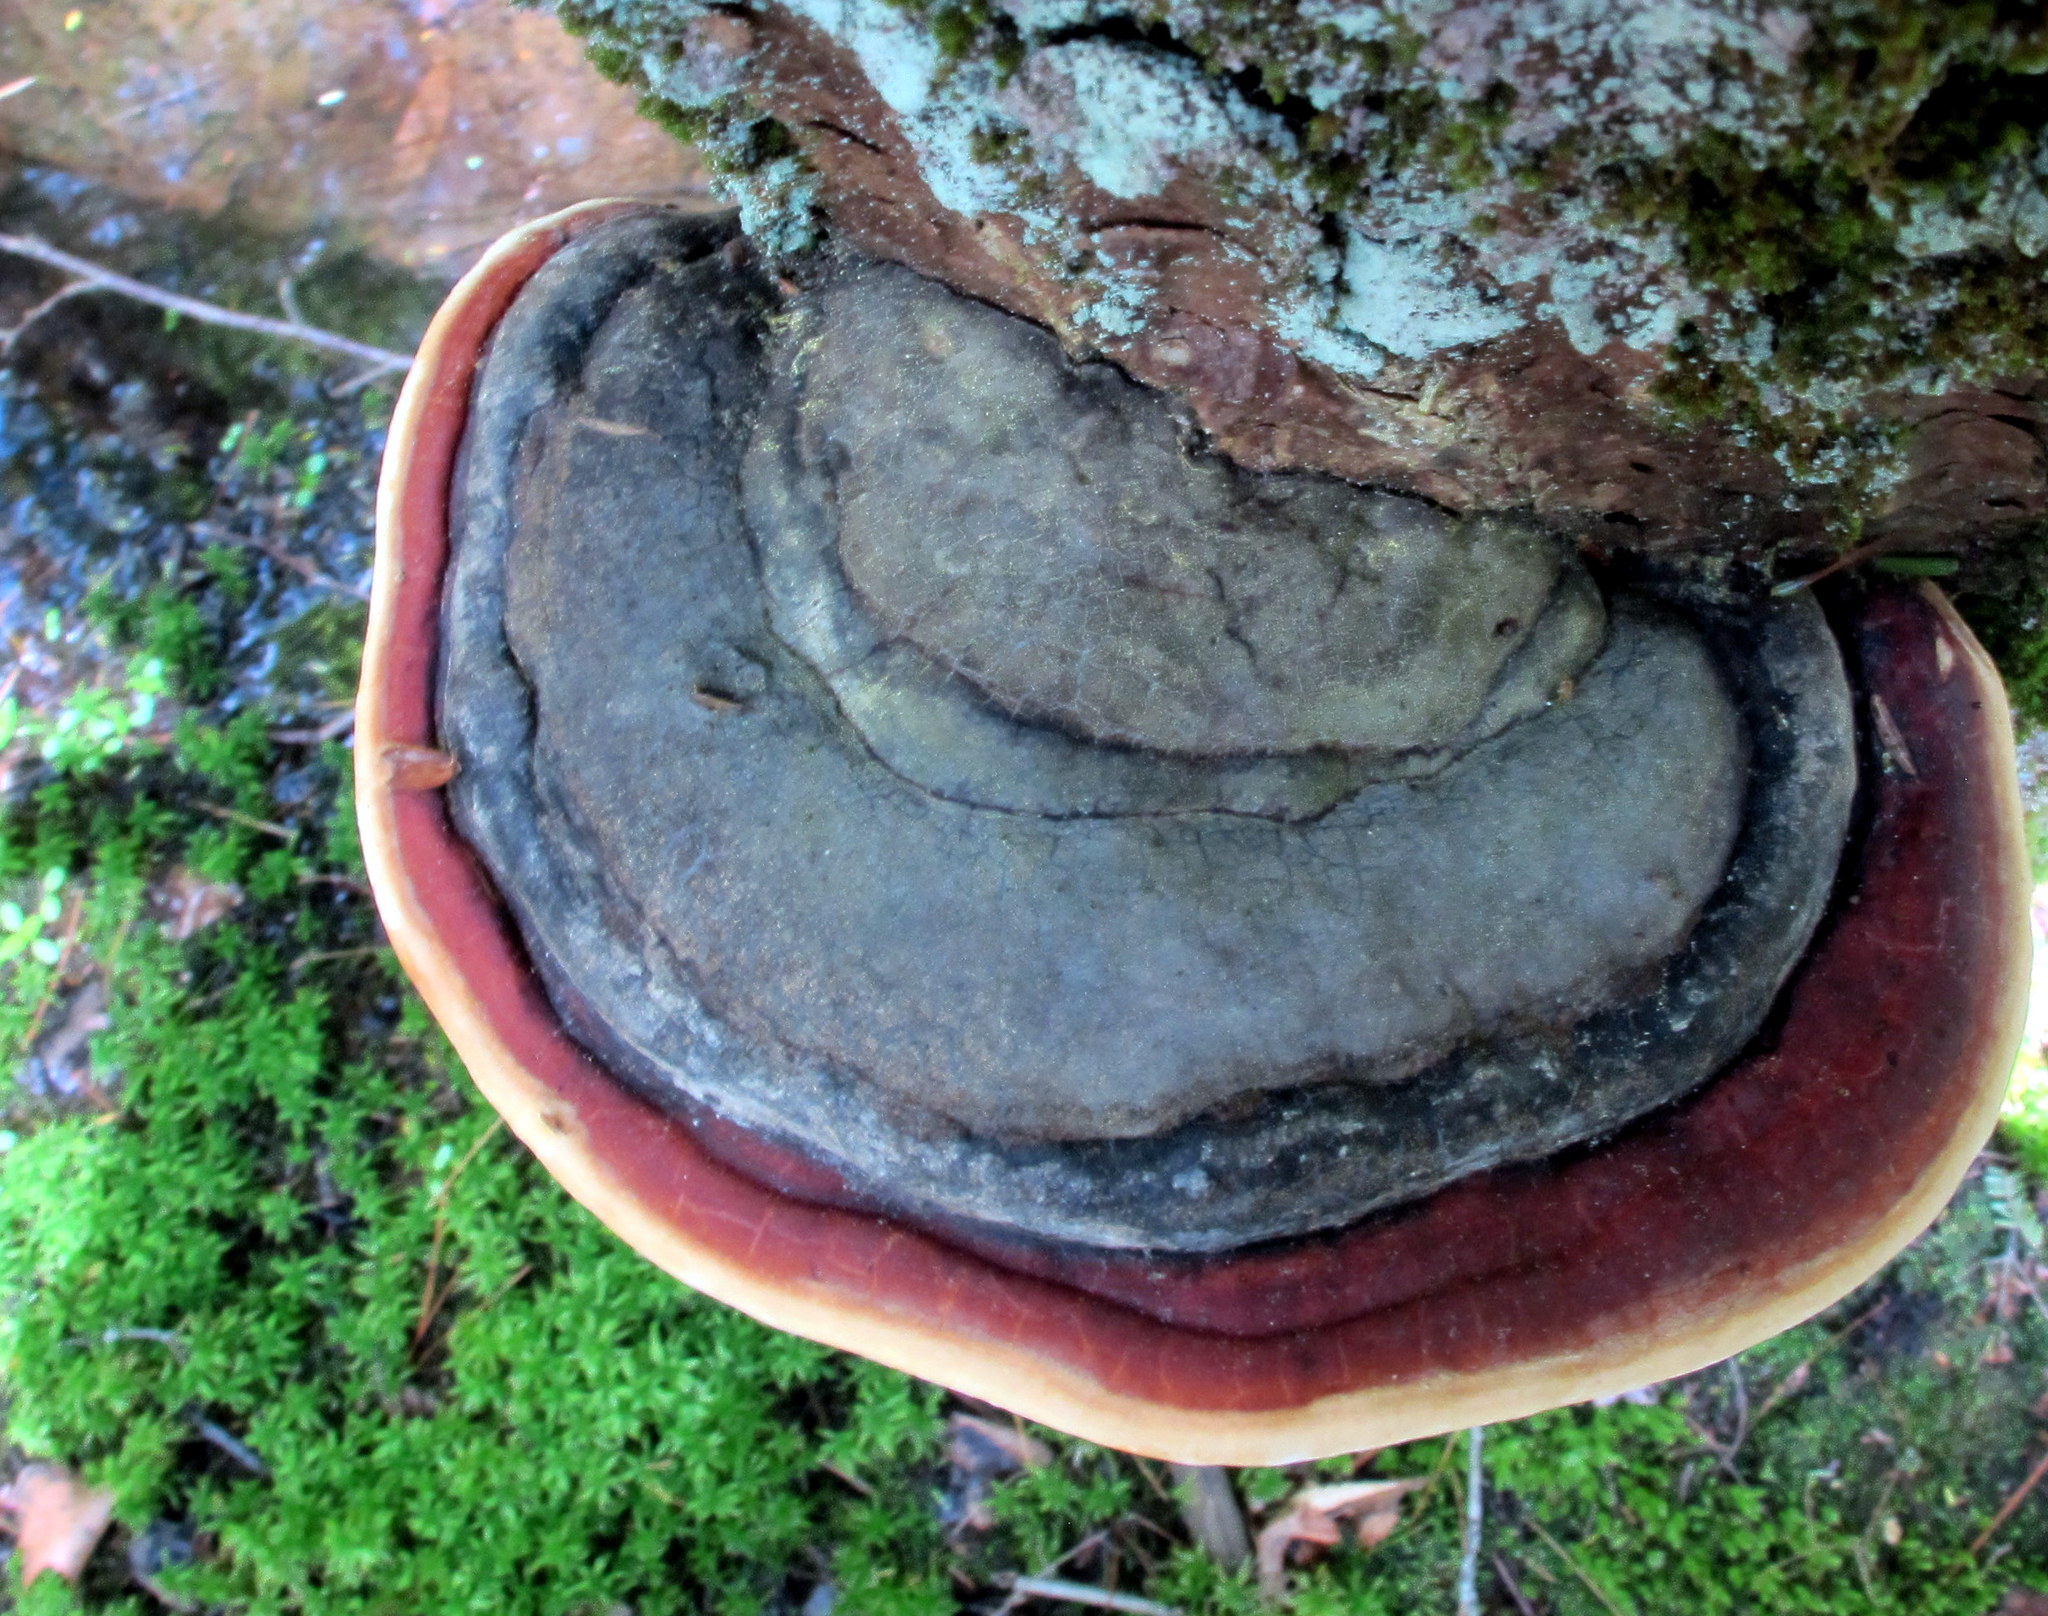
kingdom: Fungi
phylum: Basidiomycota
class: Agaricomycetes
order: Polyporales
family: Fomitopsidaceae
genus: Fomitopsis
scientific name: Fomitopsis mounceae
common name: Northern red belt
